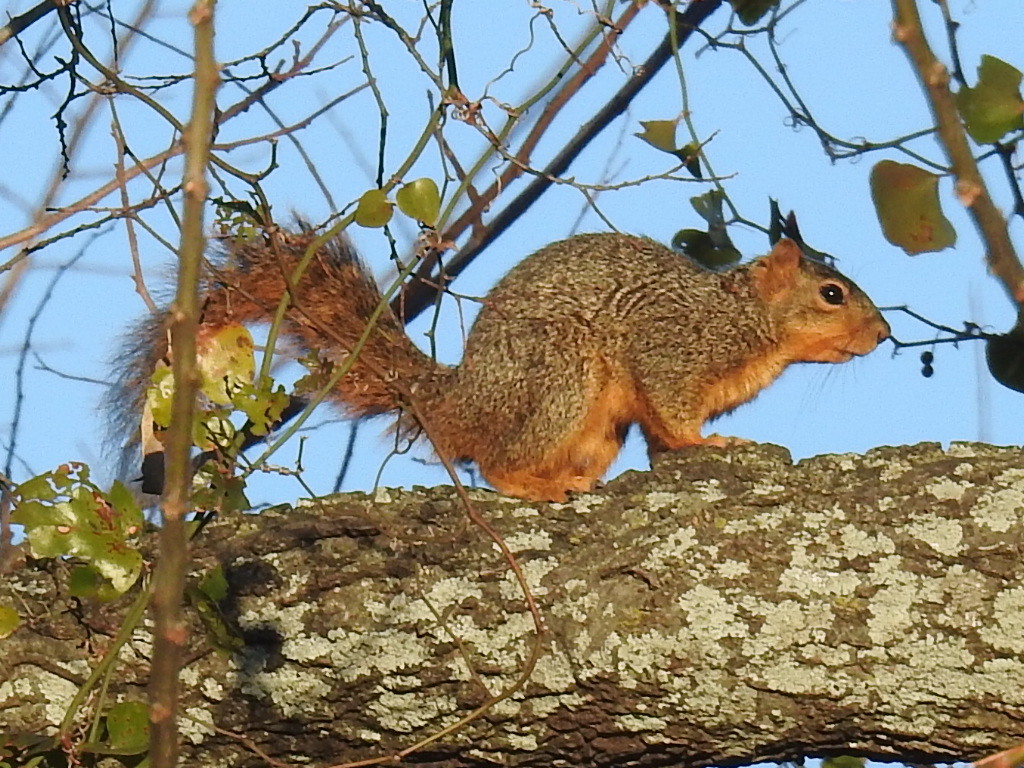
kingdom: Animalia
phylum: Chordata
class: Mammalia
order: Rodentia
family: Sciuridae
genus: Sciurus
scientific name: Sciurus niger
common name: Fox squirrel
